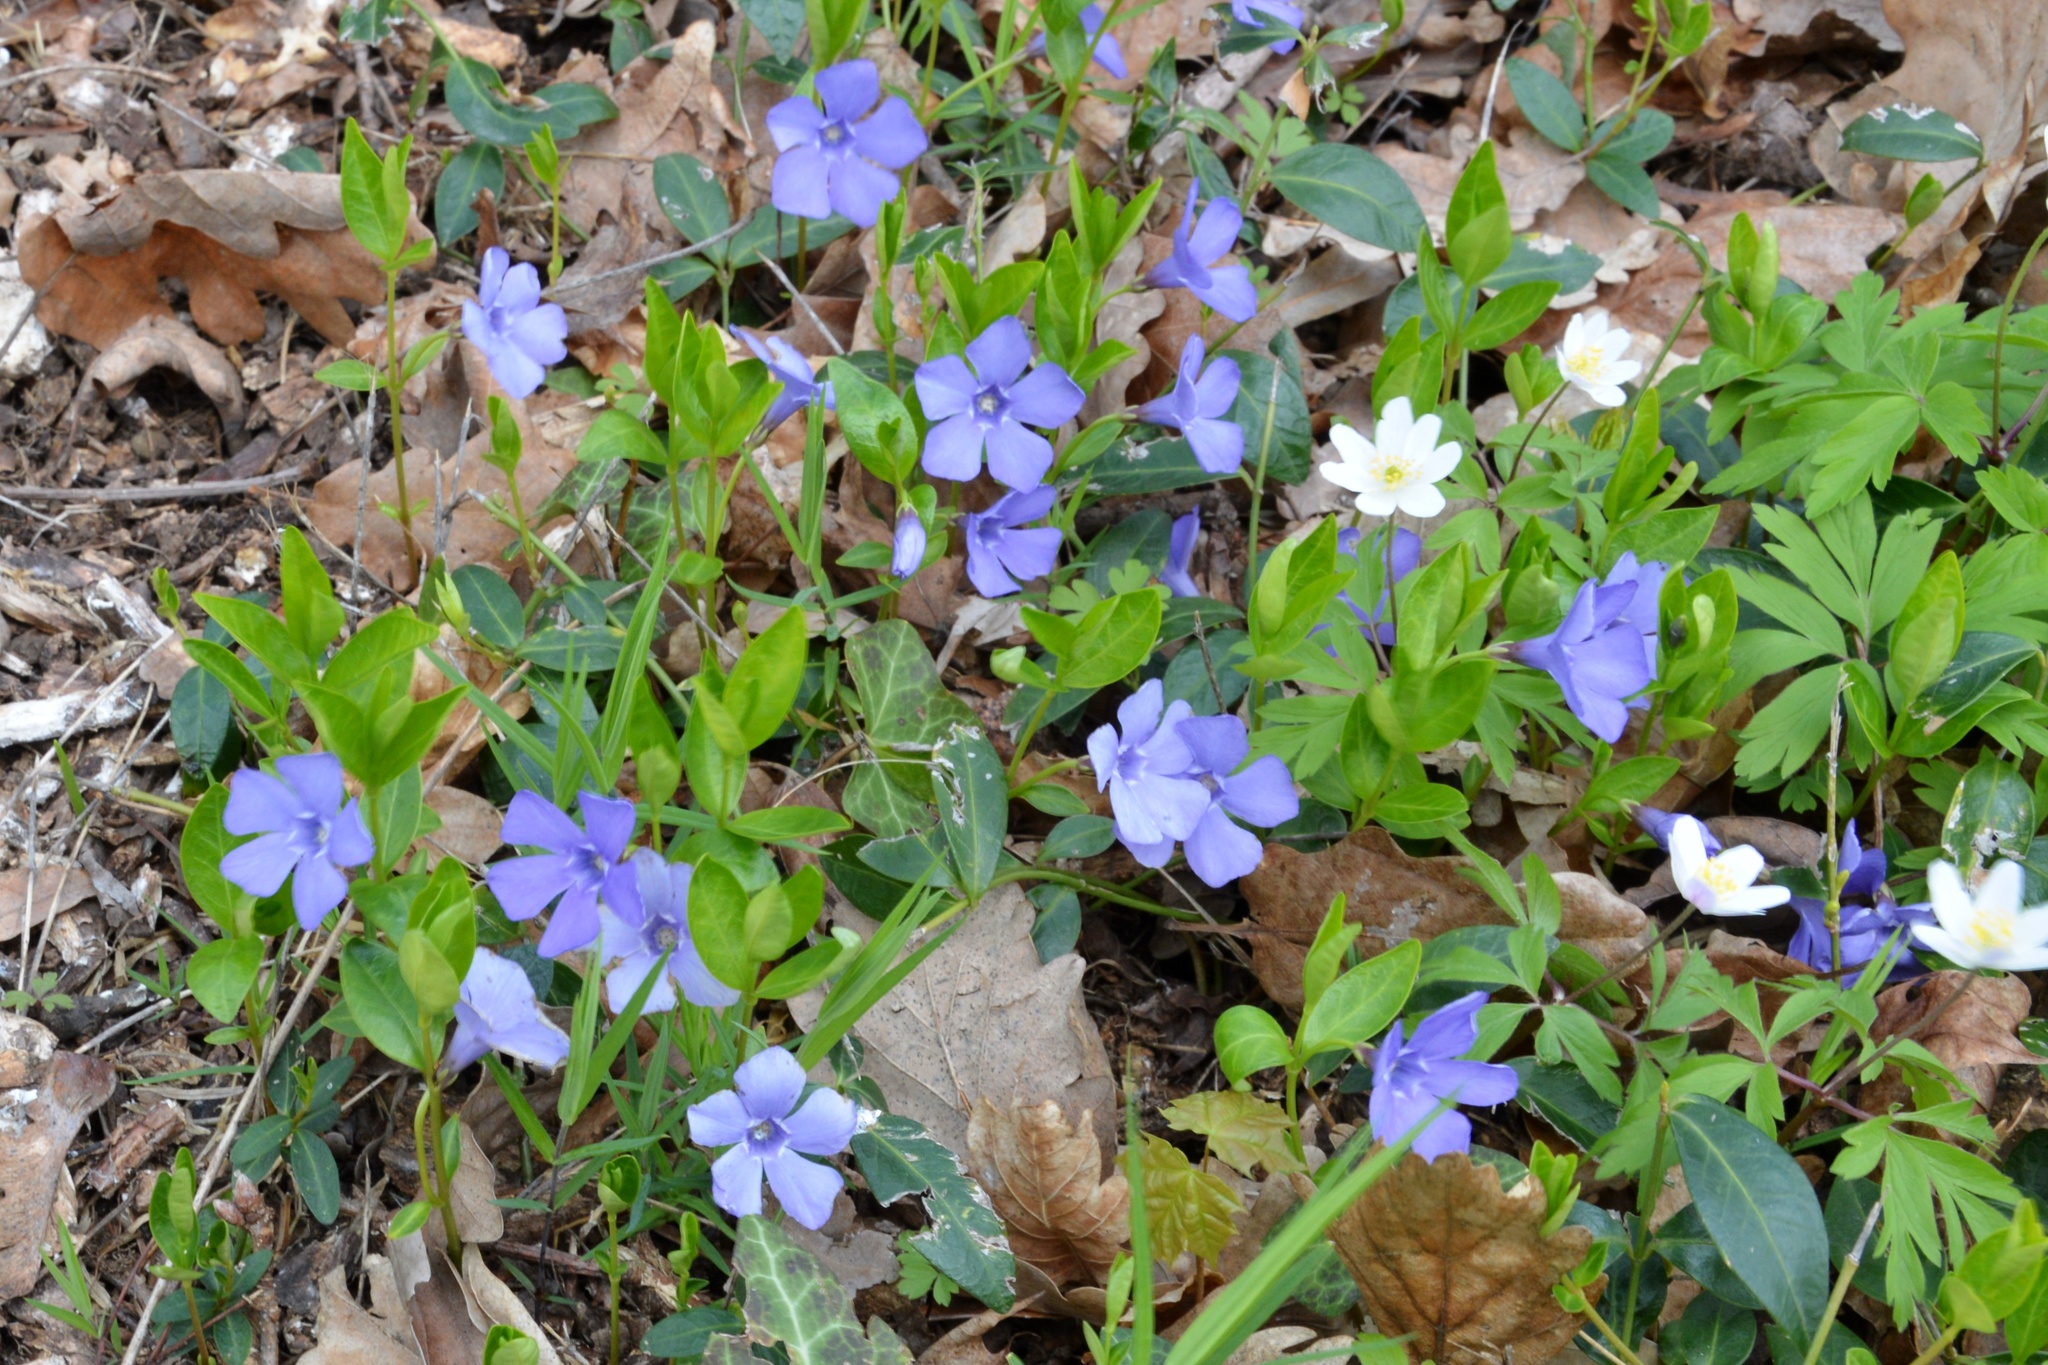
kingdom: Plantae
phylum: Tracheophyta
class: Magnoliopsida
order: Gentianales
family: Apocynaceae
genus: Vinca
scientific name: Vinca minor
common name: Lesser periwinkle
